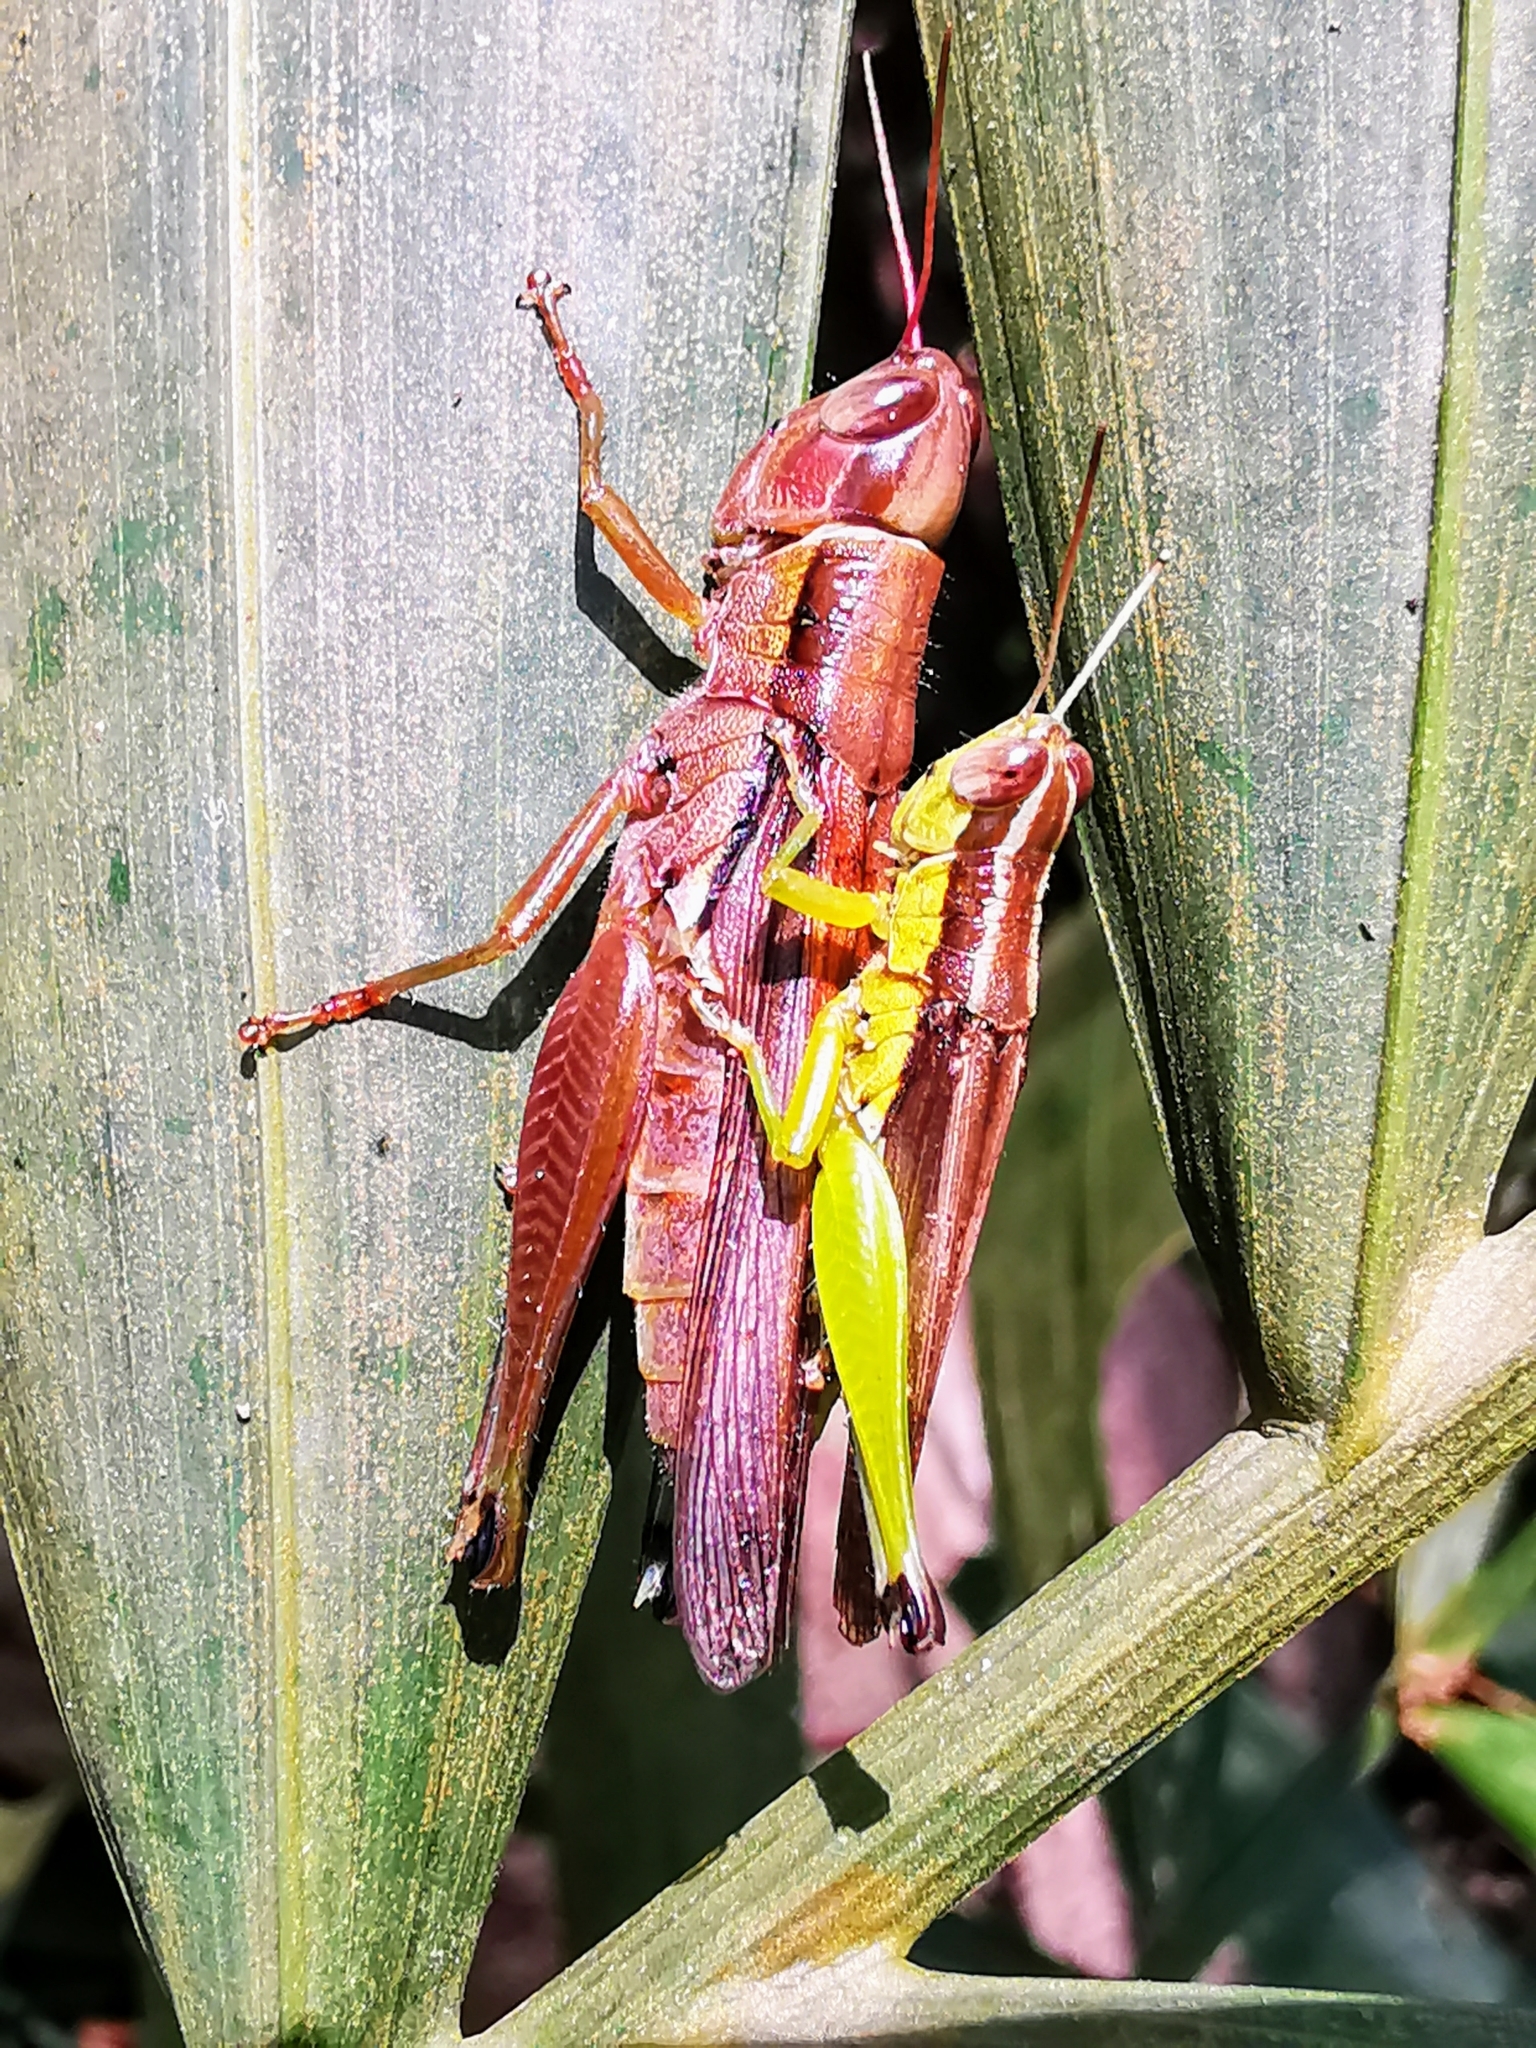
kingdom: Animalia
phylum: Arthropoda
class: Insecta
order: Orthoptera
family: Acrididae
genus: Oxya
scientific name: Oxya japonica
